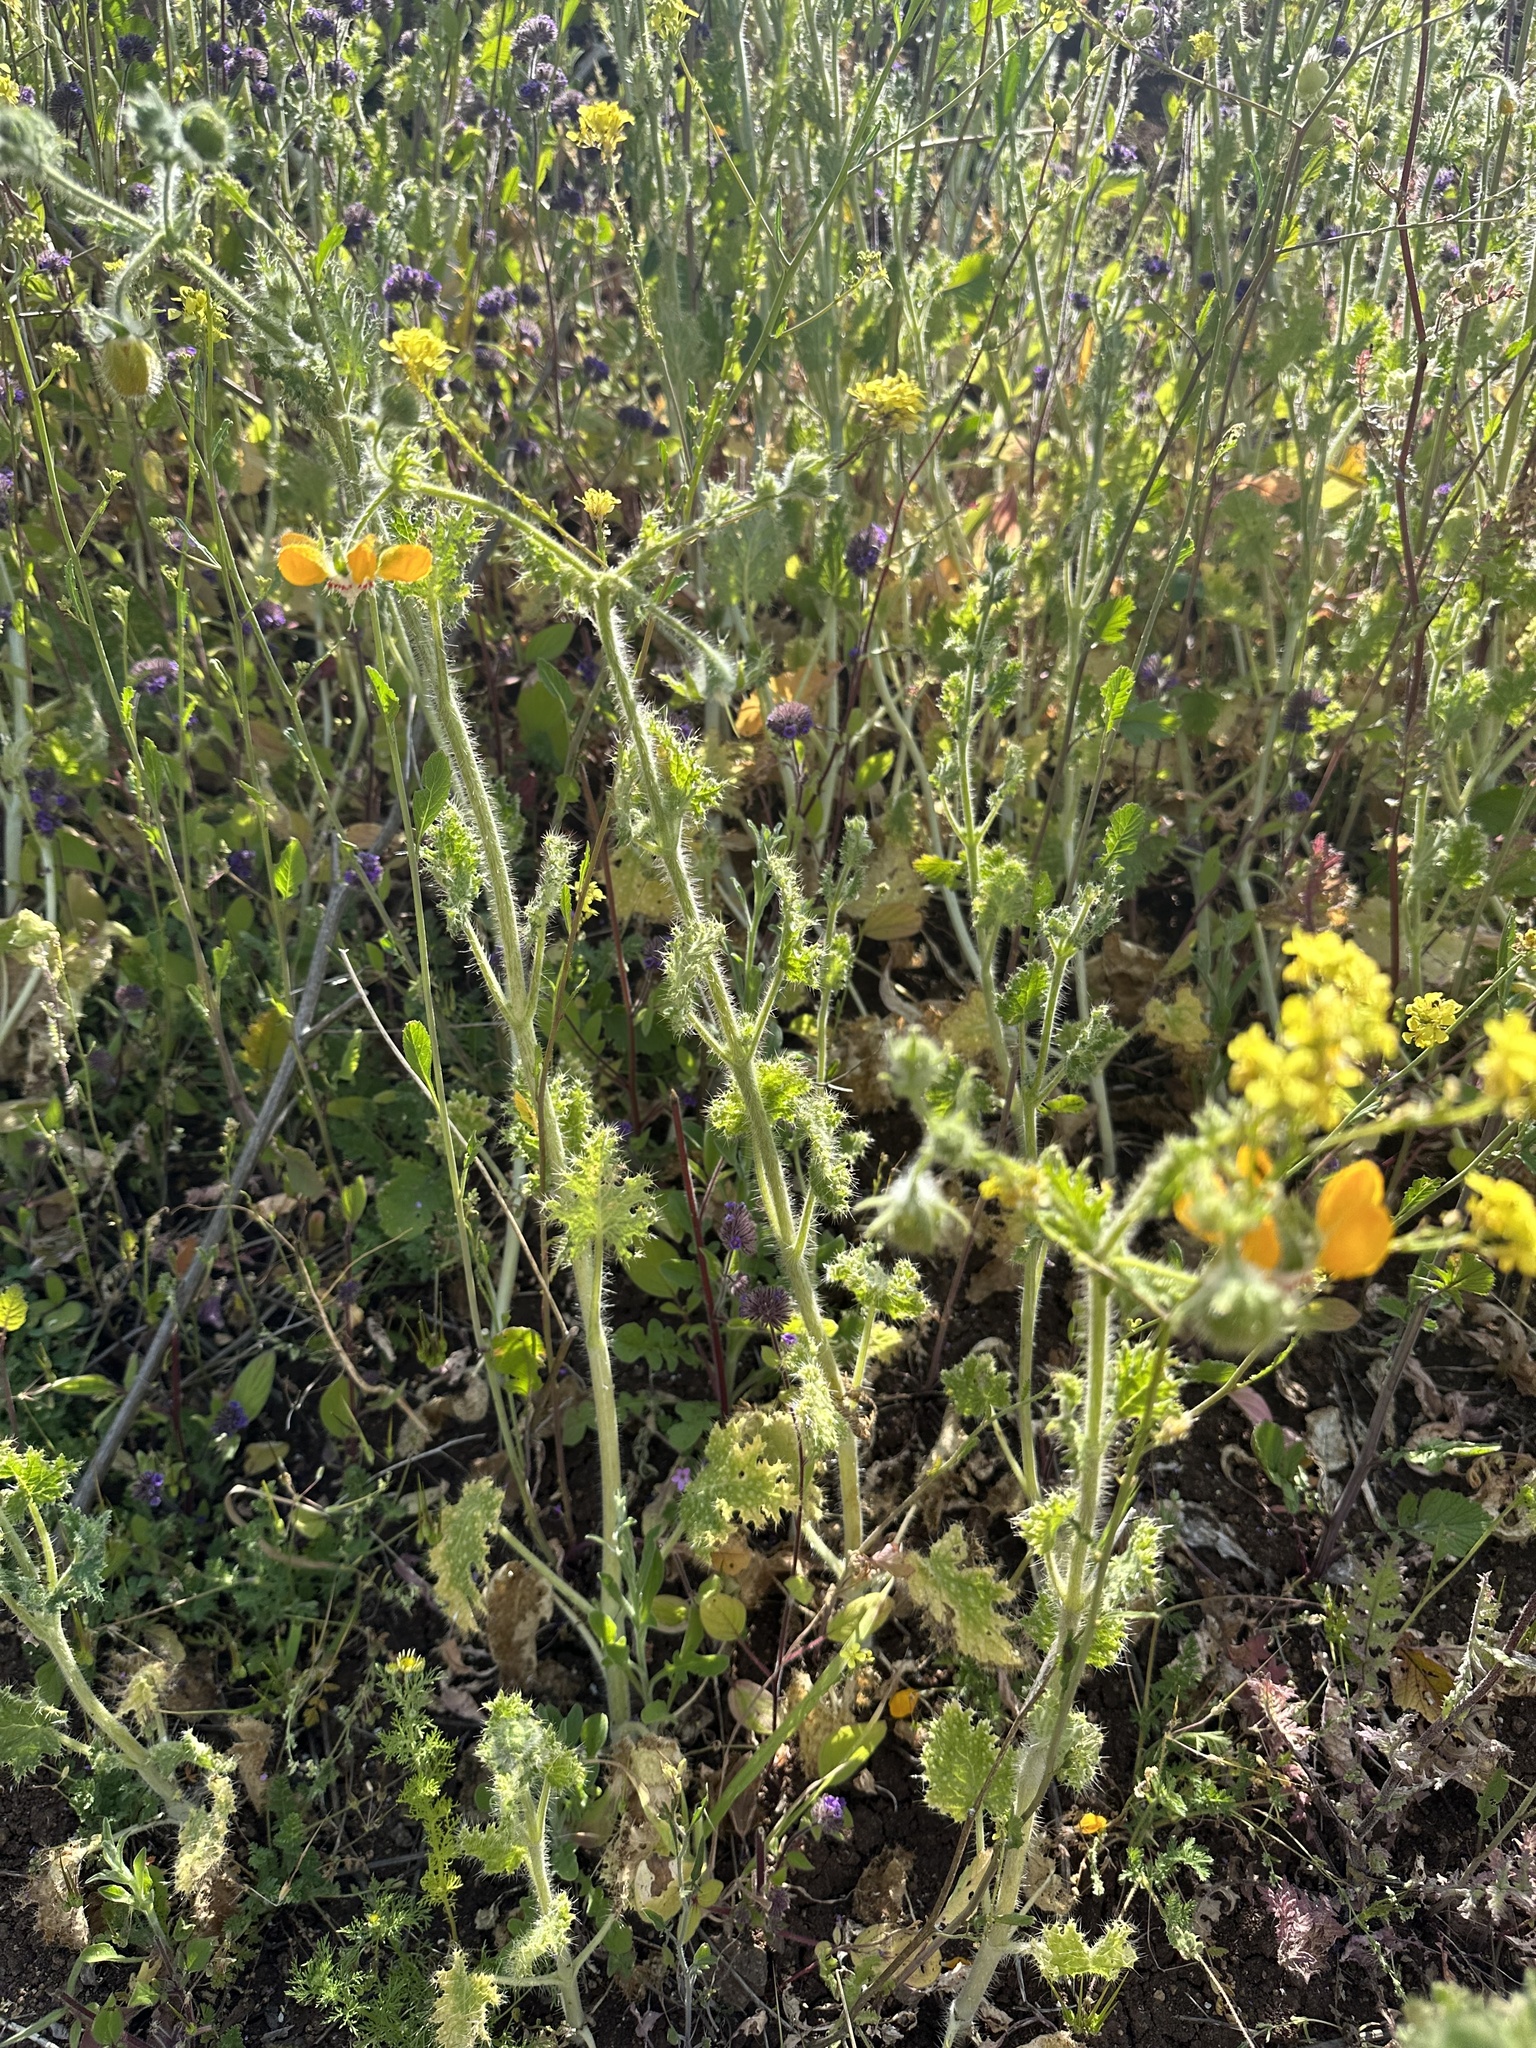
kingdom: Plantae
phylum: Tracheophyta
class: Magnoliopsida
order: Cornales
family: Loasaceae
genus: Loasa
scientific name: Loasa placei
